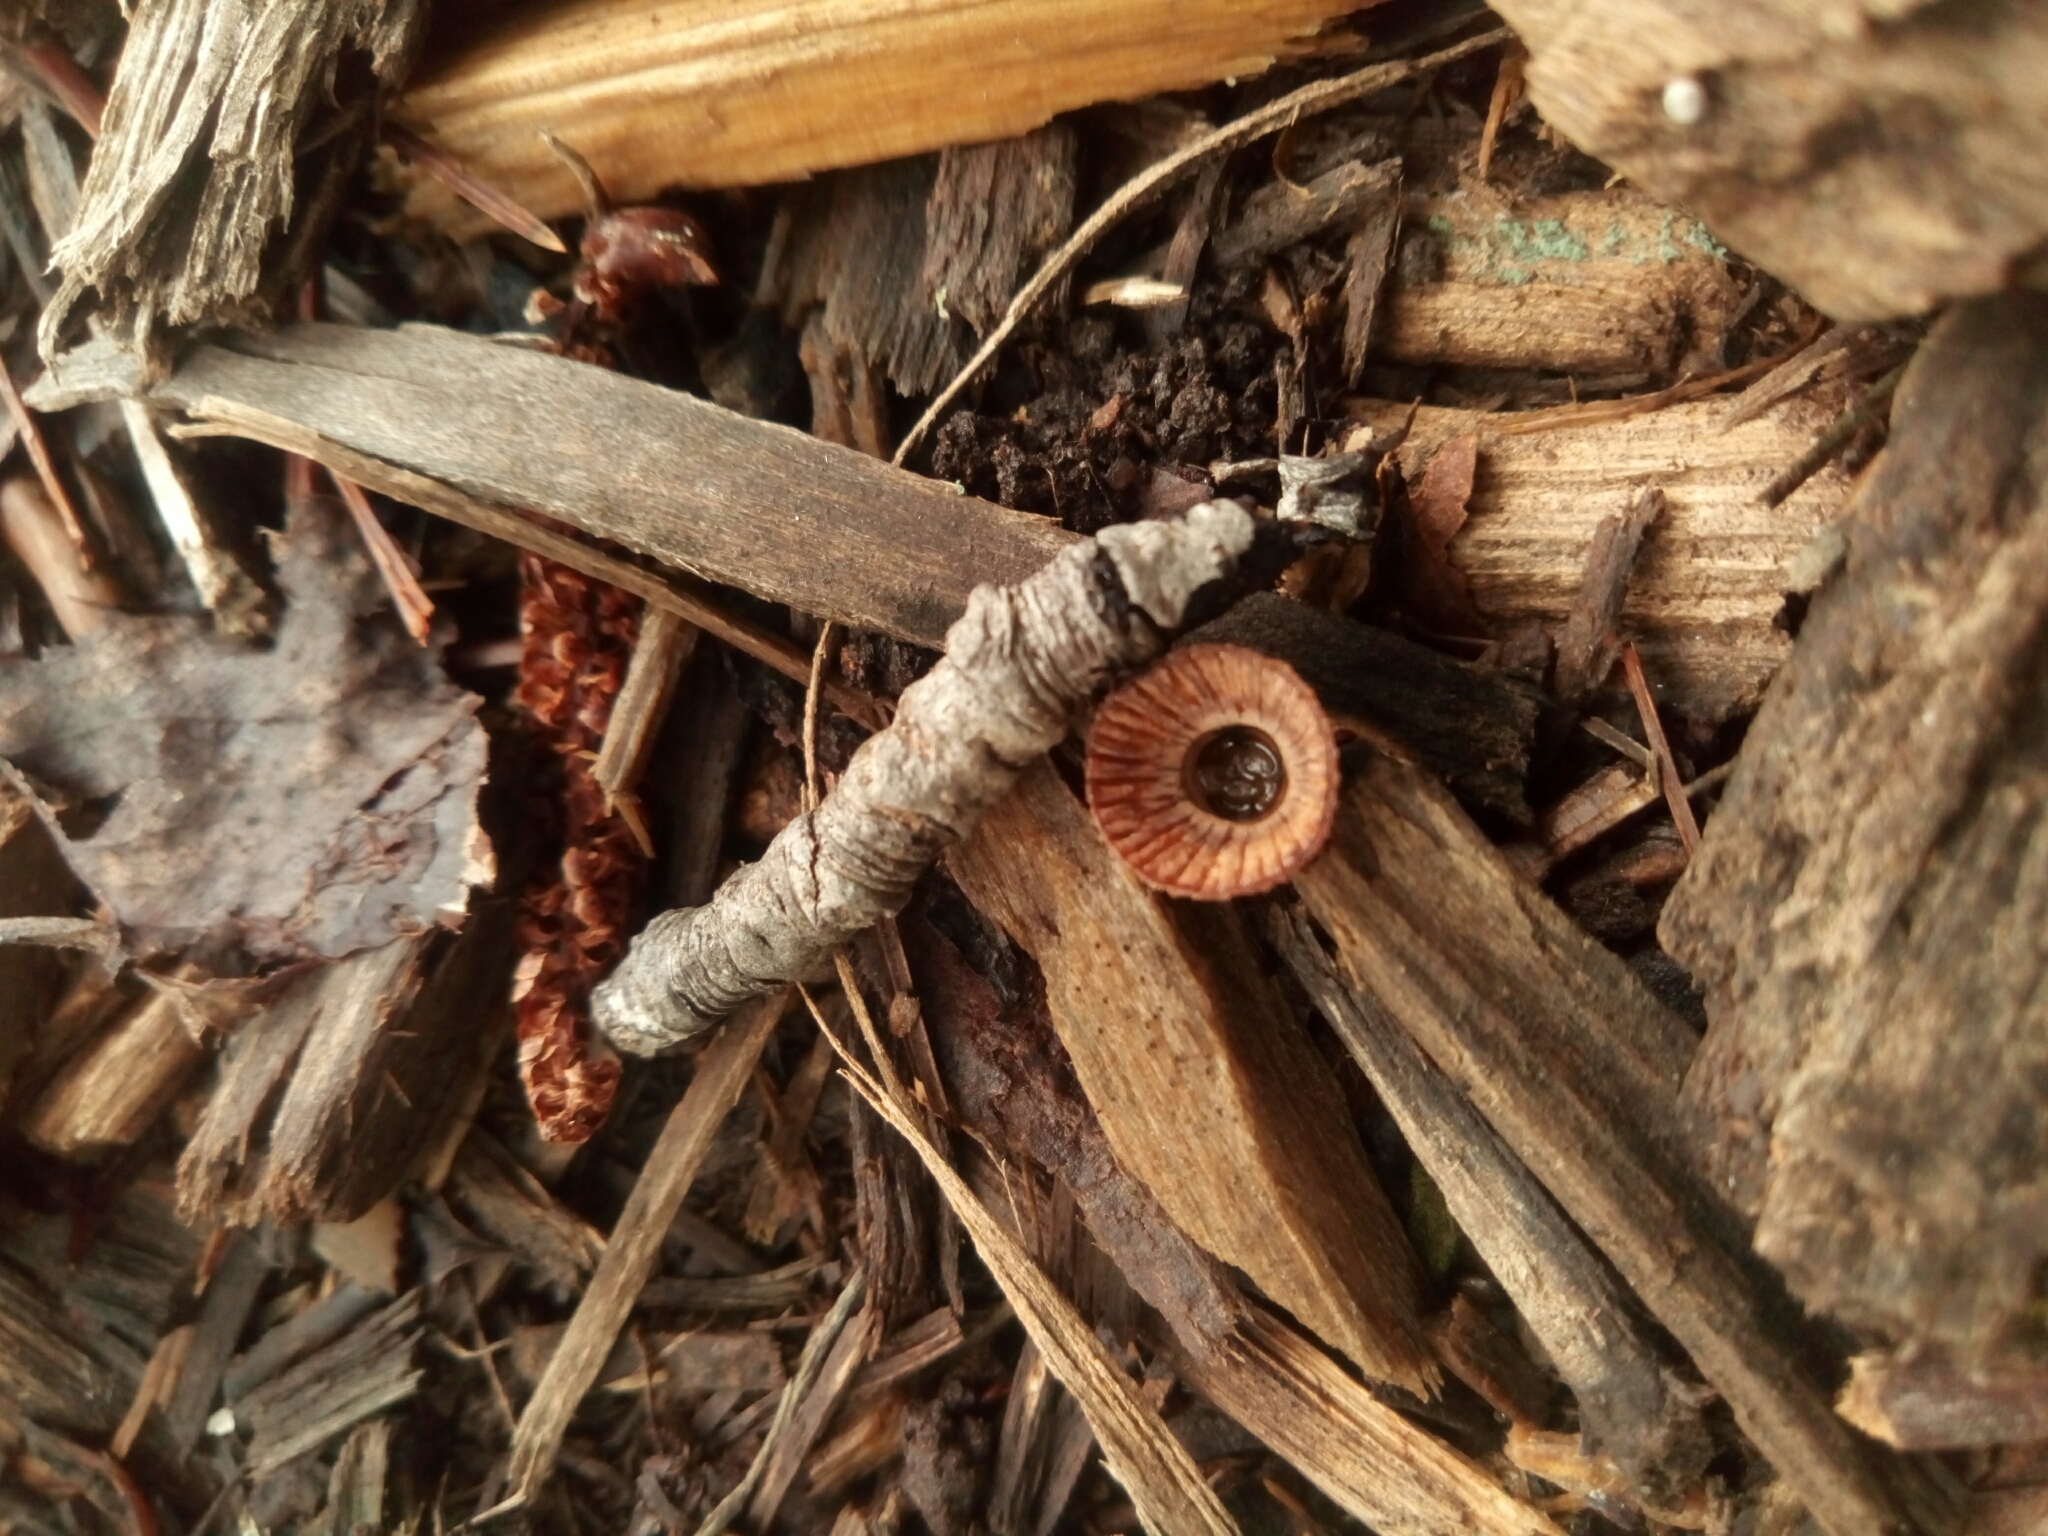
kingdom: Fungi
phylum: Basidiomycota
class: Agaricomycetes
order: Agaricales
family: Agaricaceae
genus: Cyathus
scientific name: Cyathus striatus
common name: Fluted bird's nest
